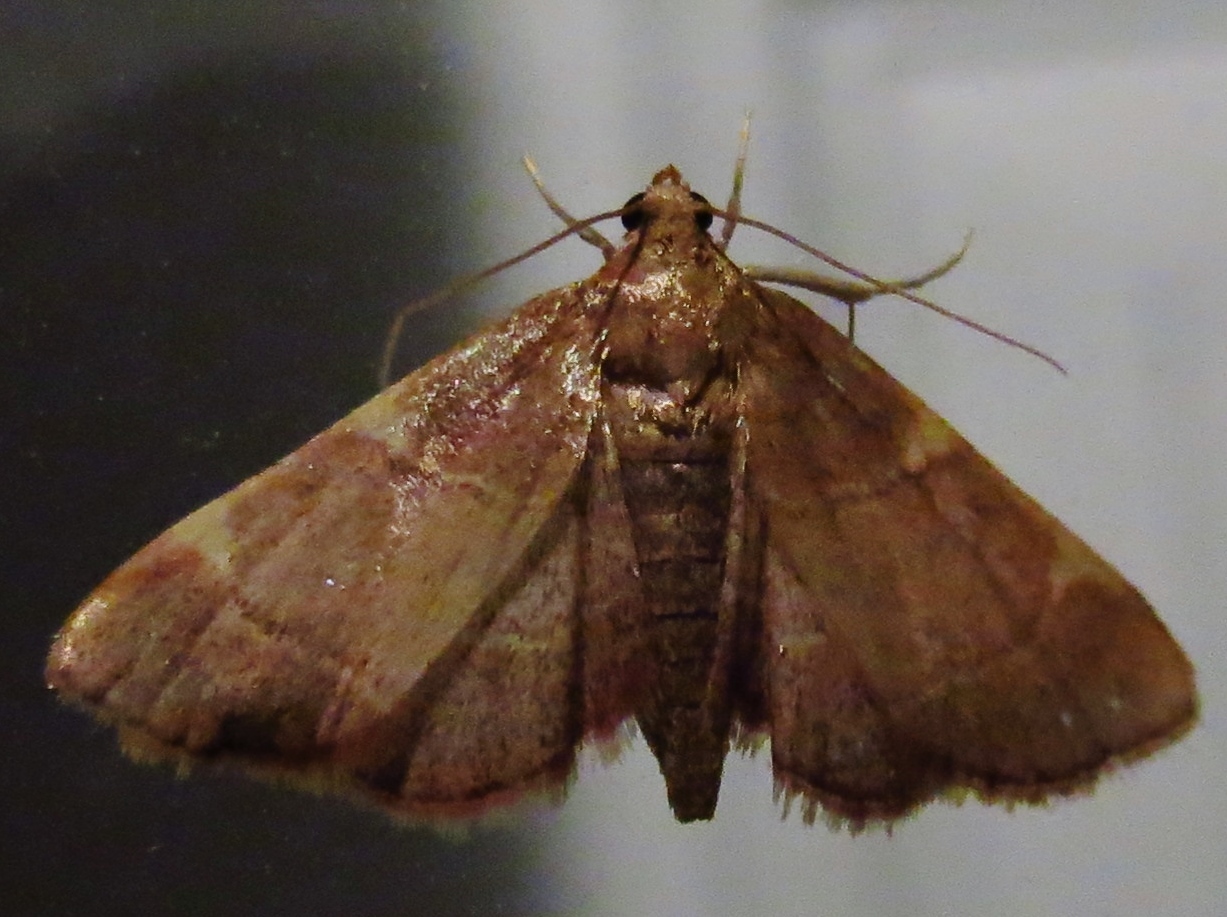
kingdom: Animalia
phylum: Arthropoda
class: Insecta
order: Lepidoptera
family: Pyralidae
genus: Hypsopygia
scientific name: Hypsopygia olinalis
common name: Yellow-fringed dolichomia moth
